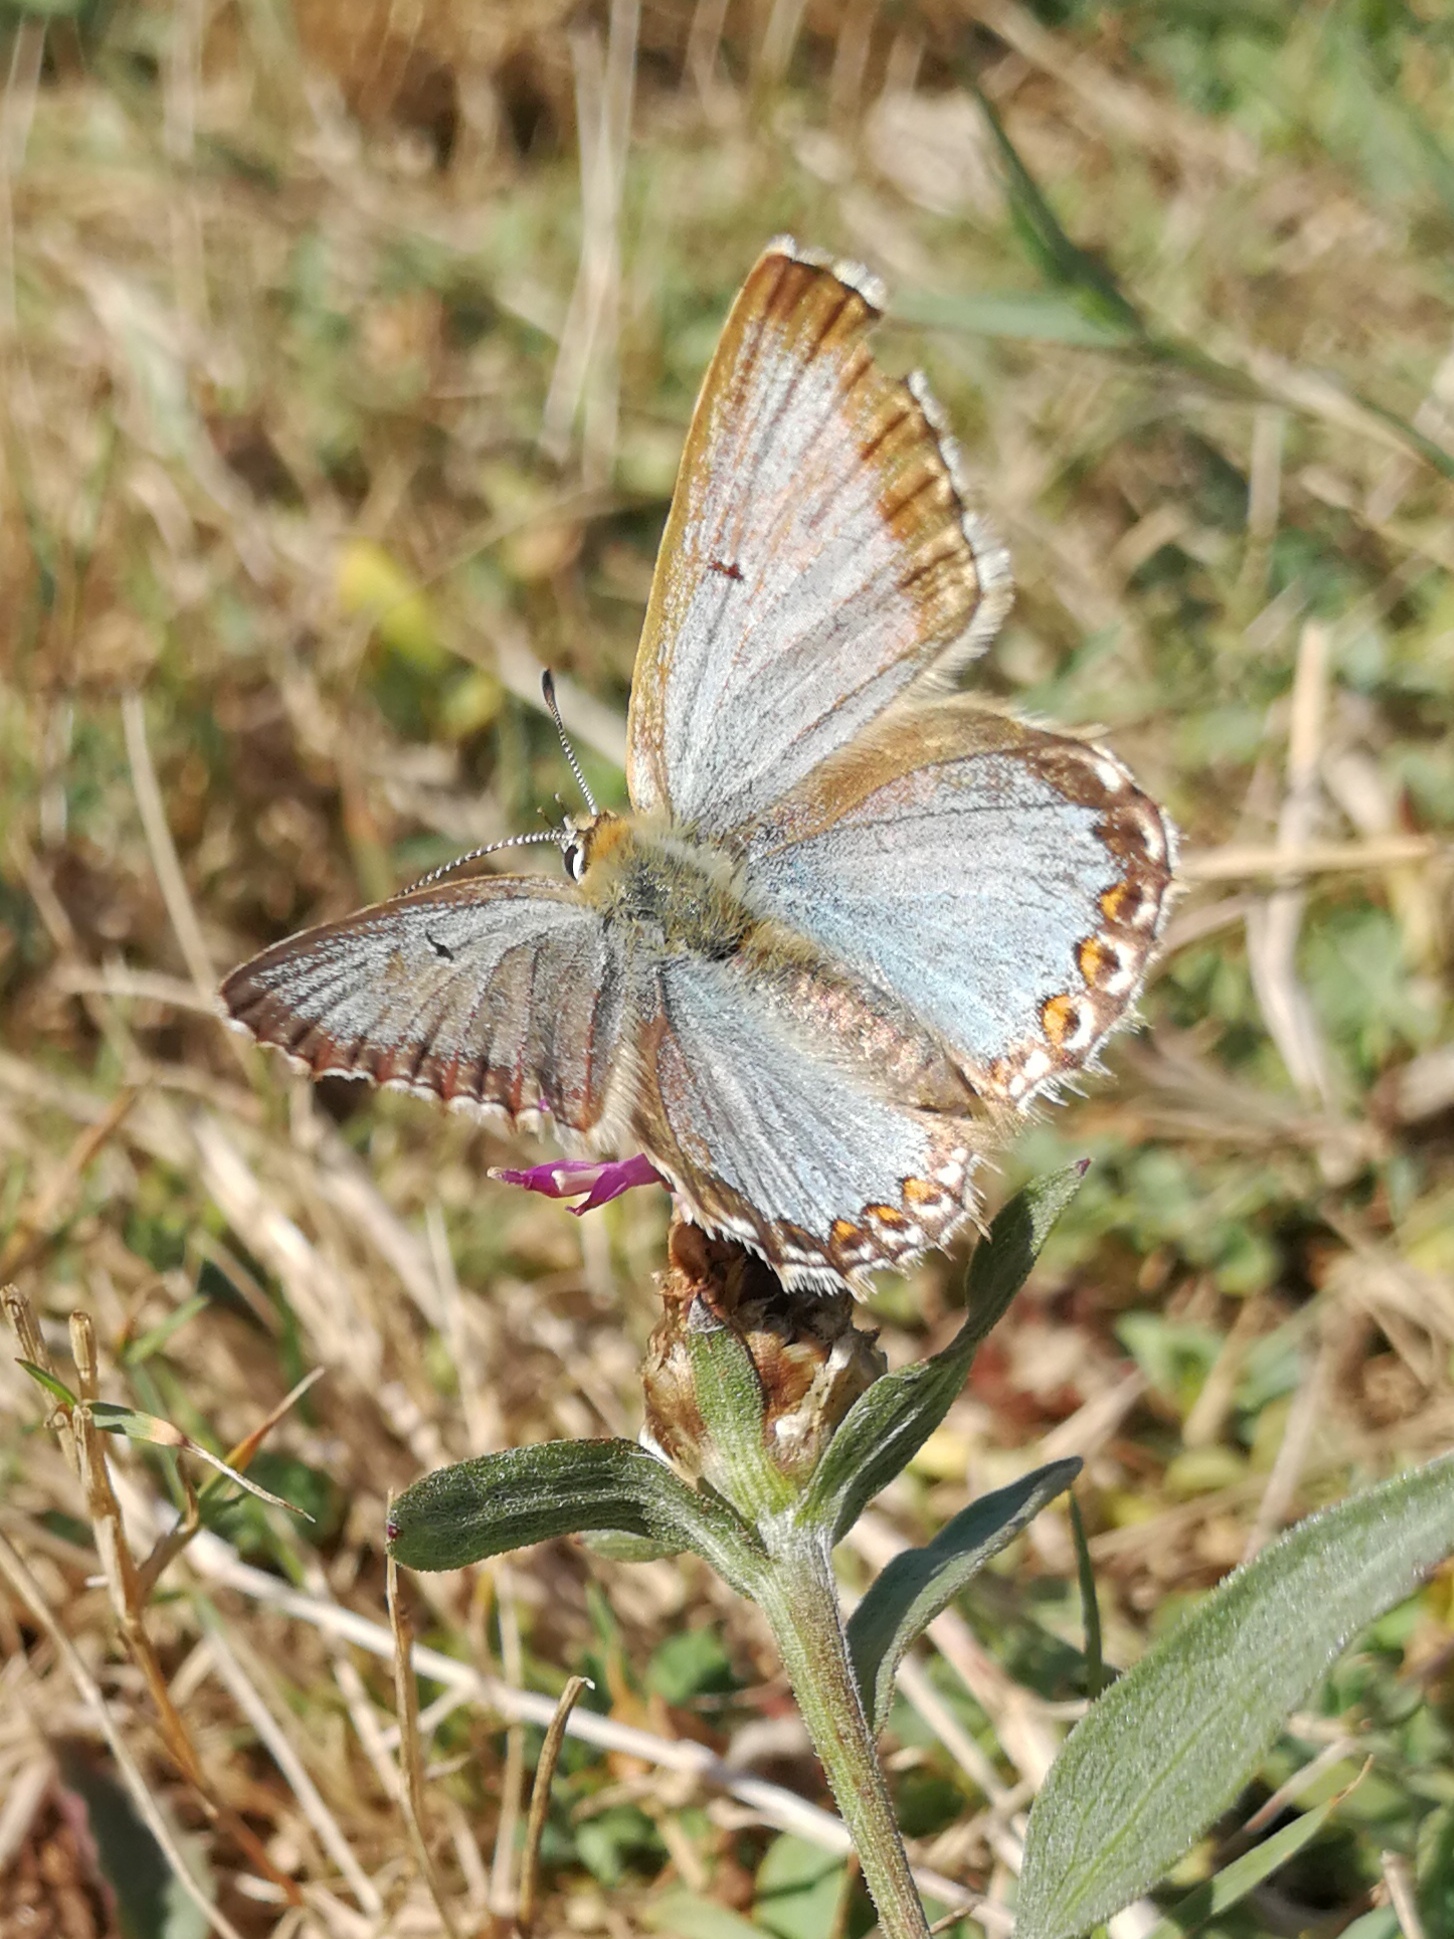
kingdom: Animalia
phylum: Arthropoda
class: Insecta
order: Lepidoptera
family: Lycaenidae
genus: Lysandra
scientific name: Lysandra coridon
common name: Chalkhill blue
